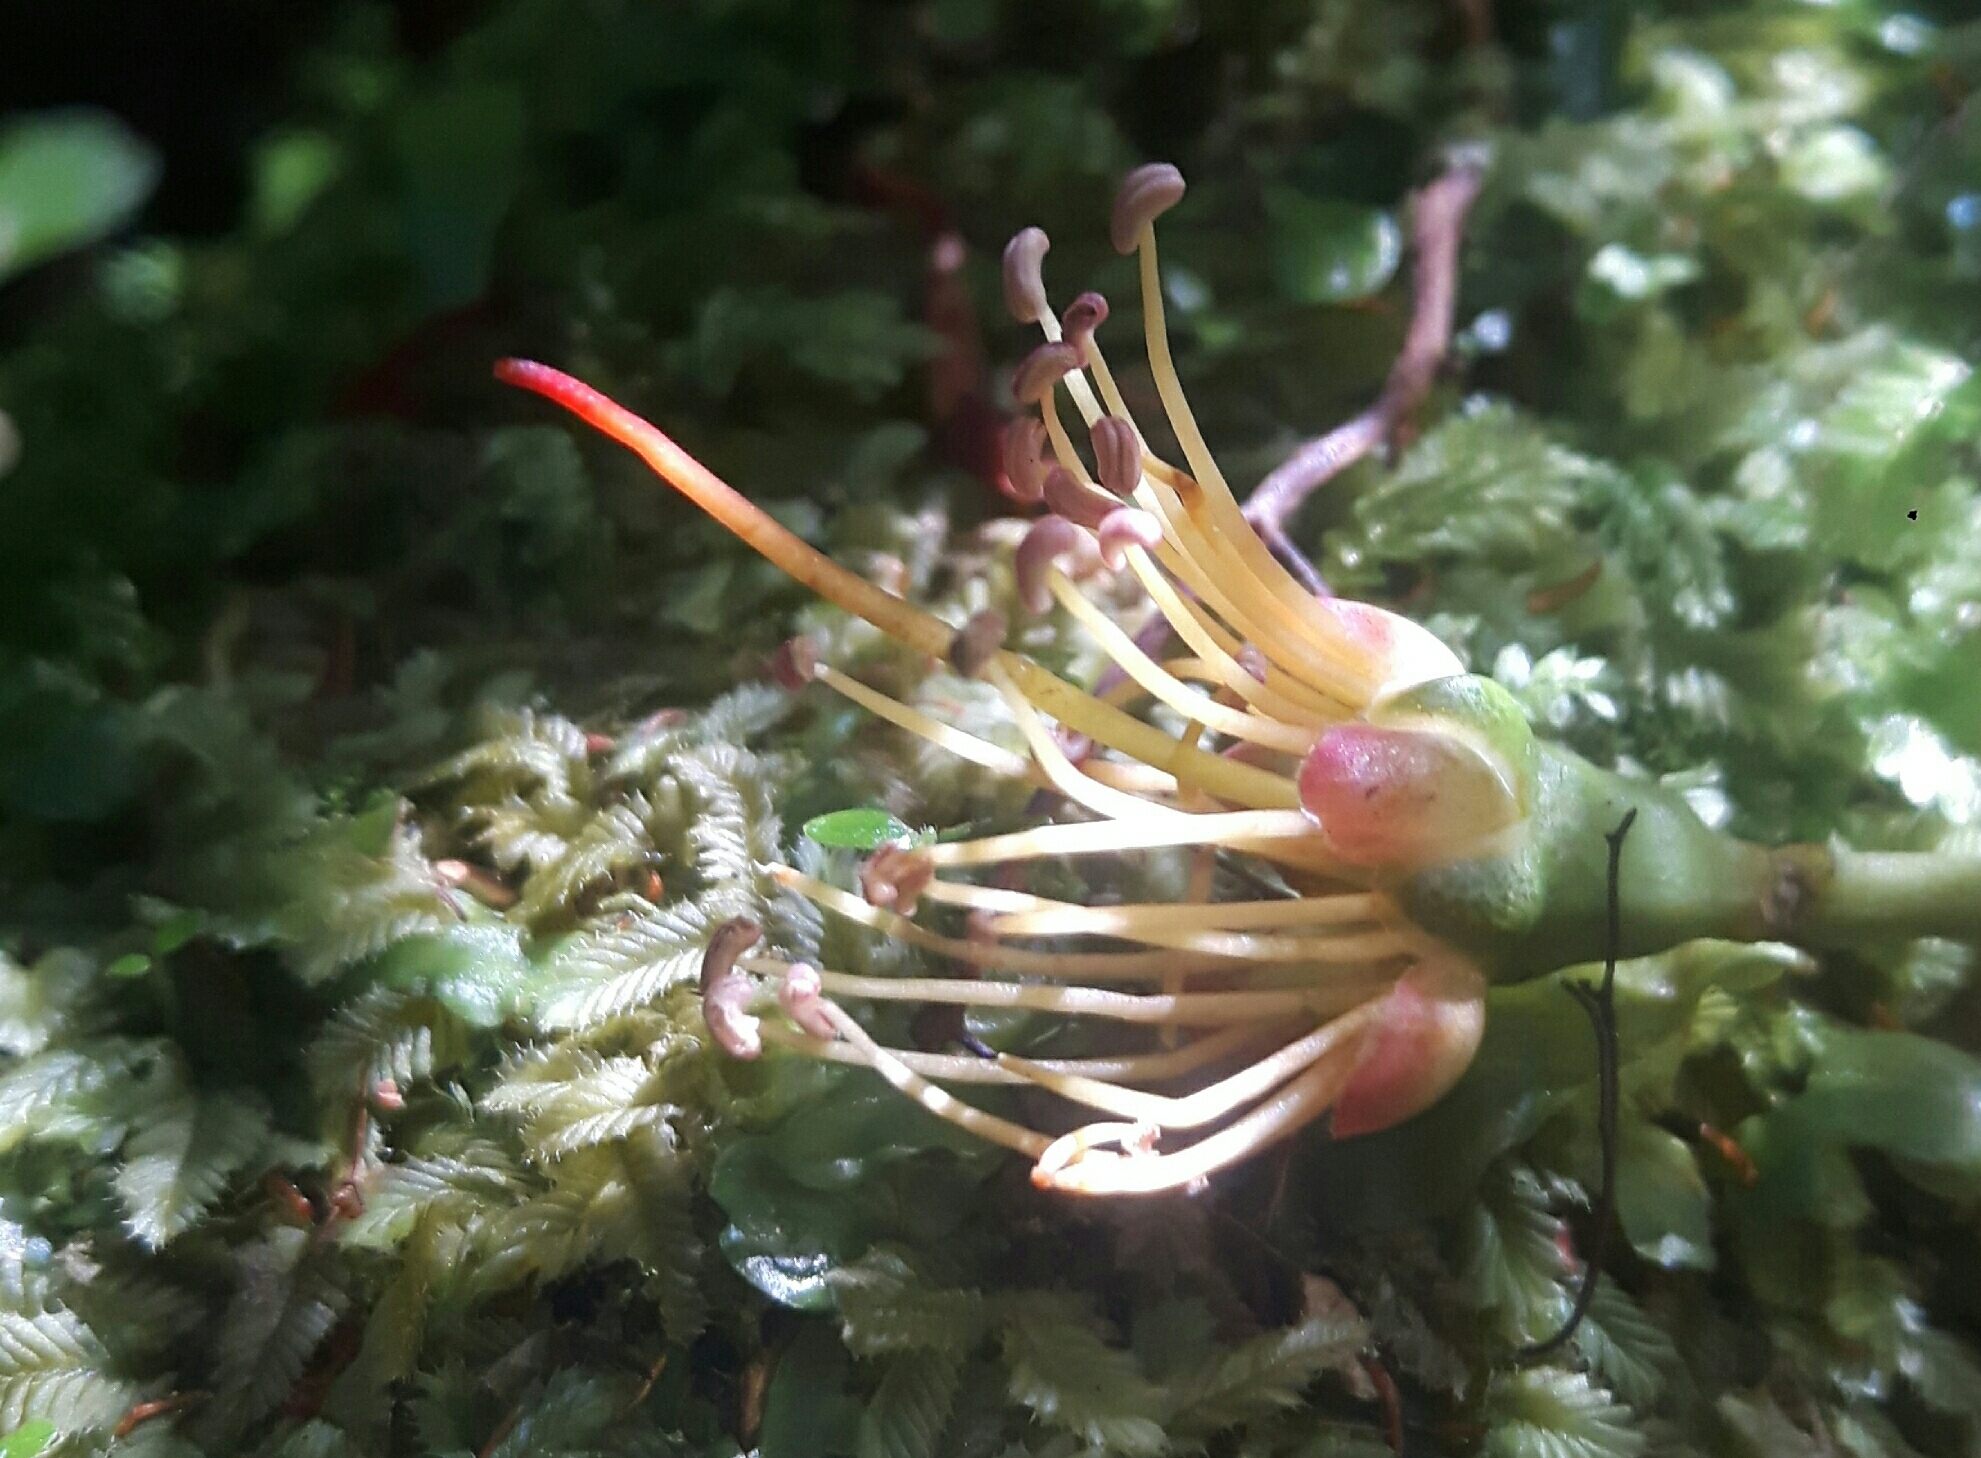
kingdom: Plantae
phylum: Tracheophyta
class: Magnoliopsida
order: Myrtales
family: Myrtaceae
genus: Metrosideros
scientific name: Metrosideros umbellata
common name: Southern rata
